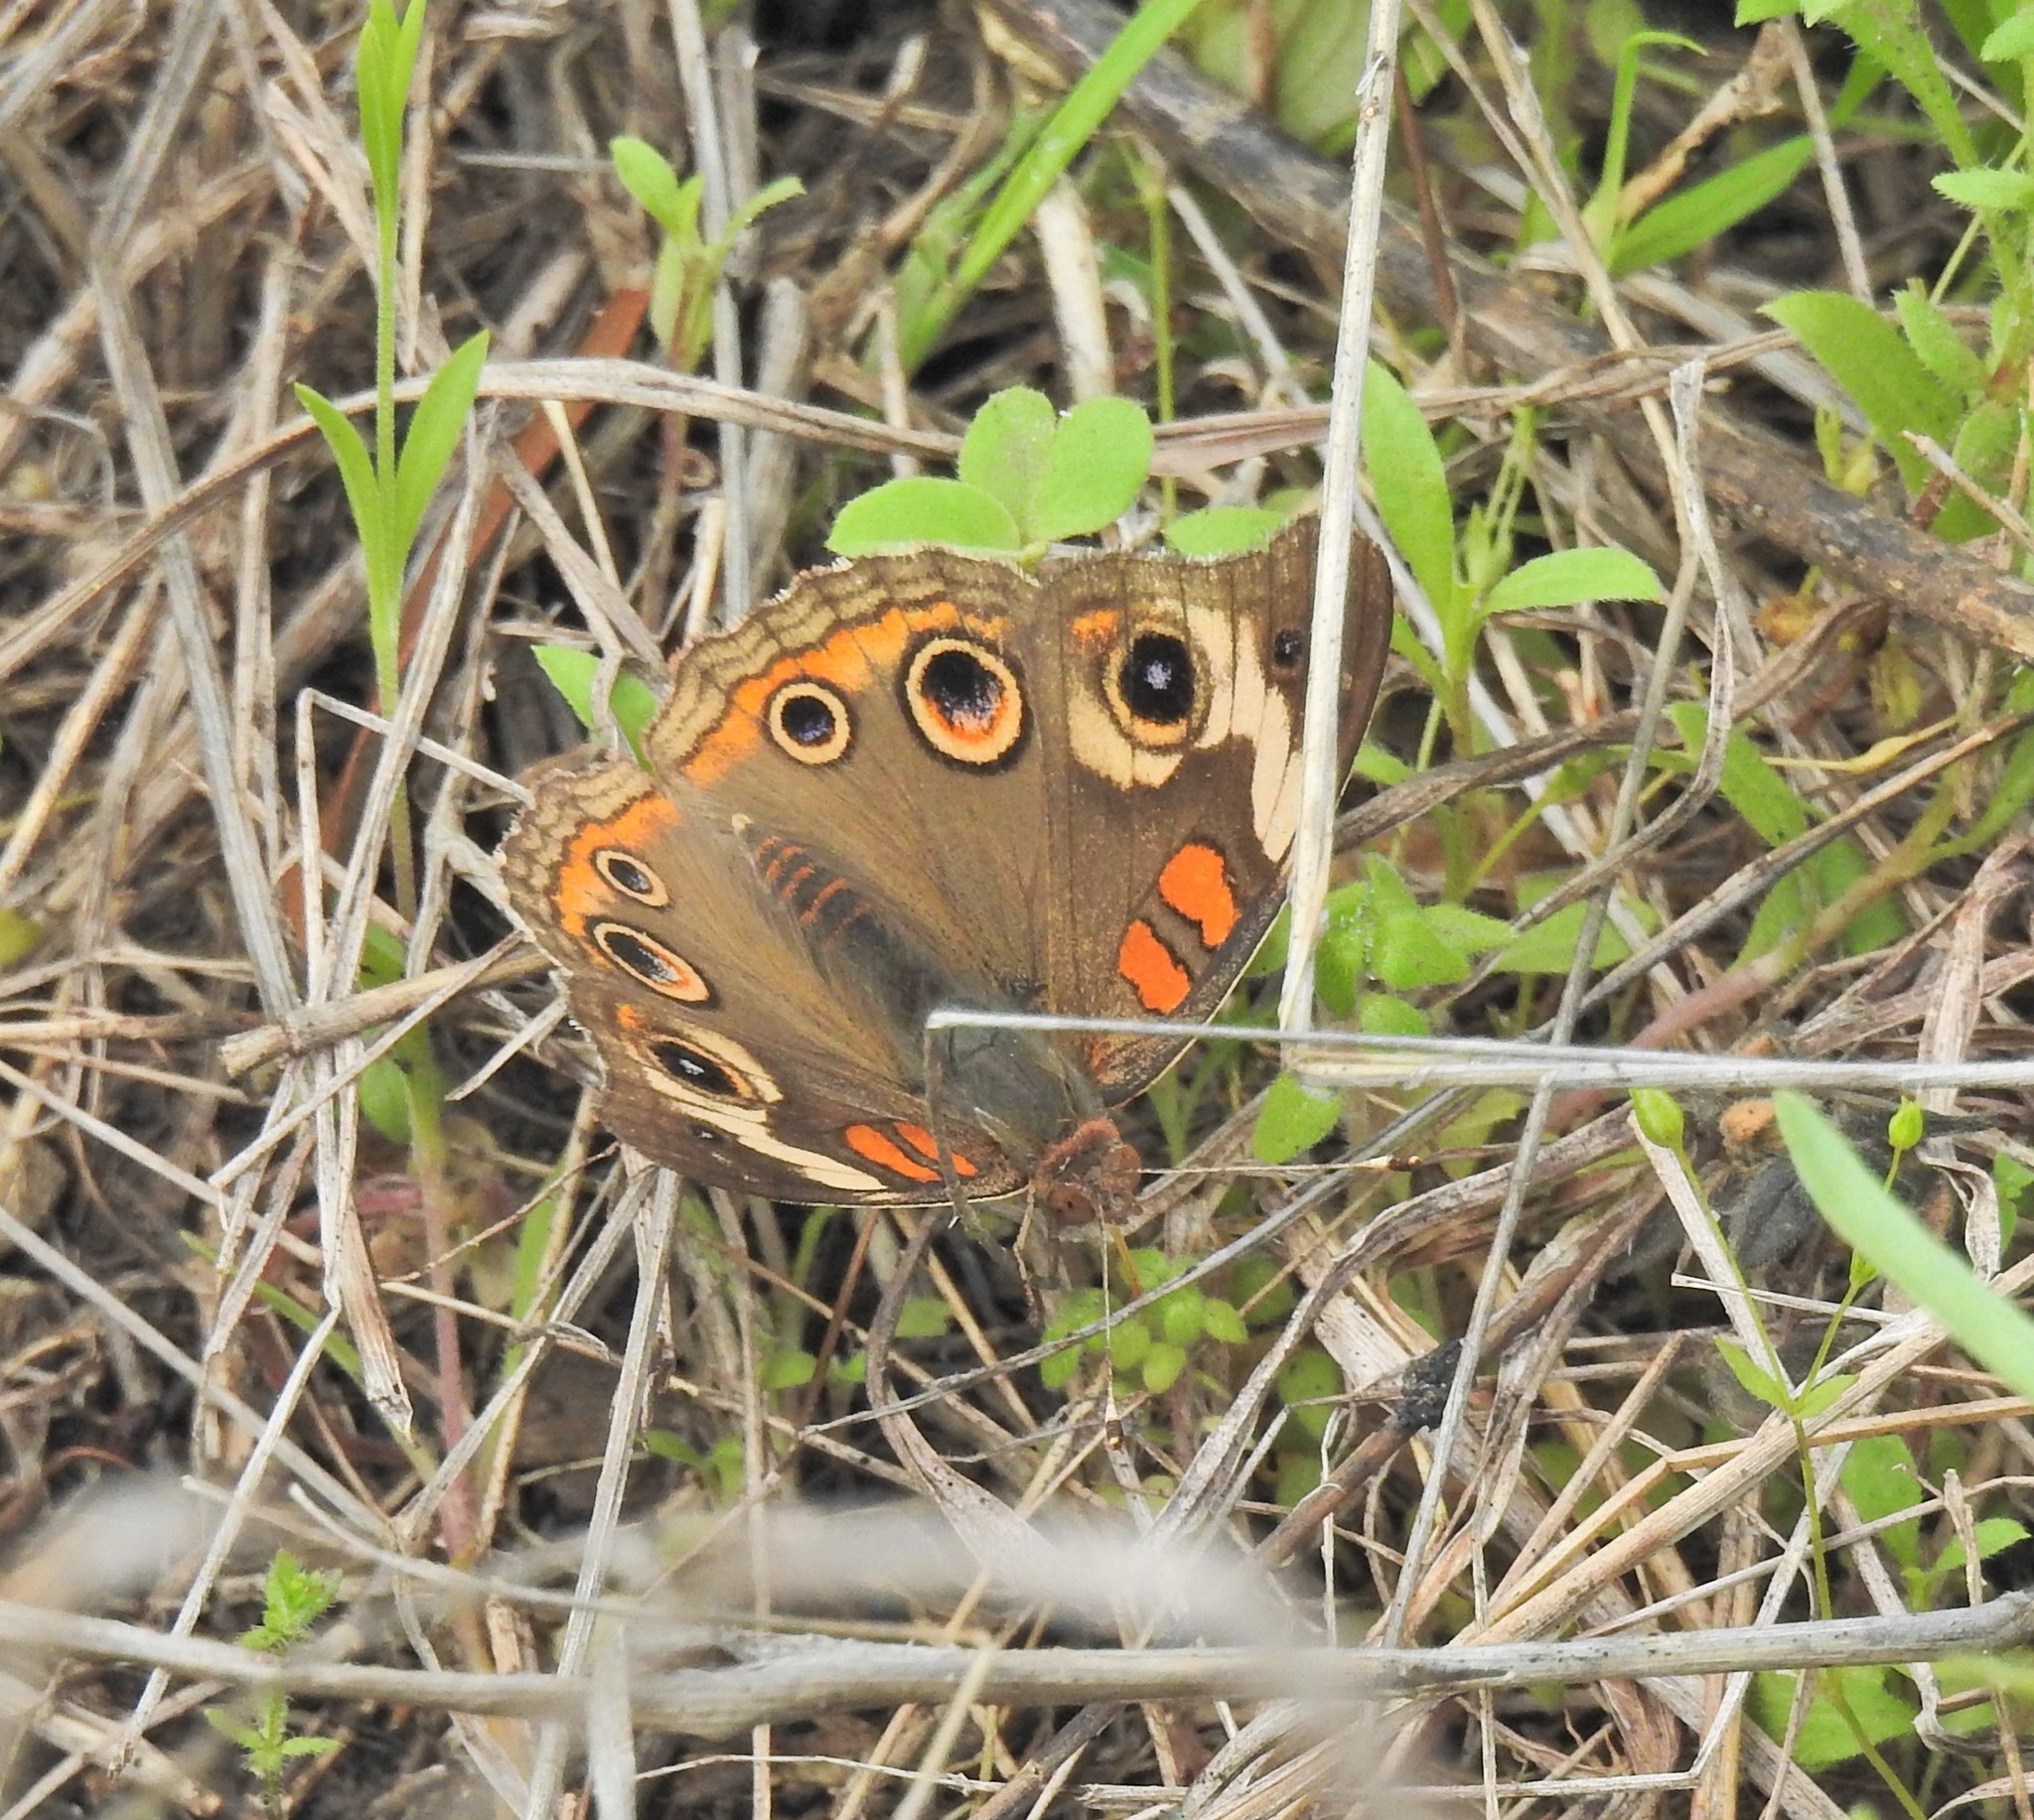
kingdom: Animalia
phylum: Arthropoda
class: Insecta
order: Lepidoptera
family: Nymphalidae
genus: Junonia
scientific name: Junonia coenia
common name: Common buckeye
